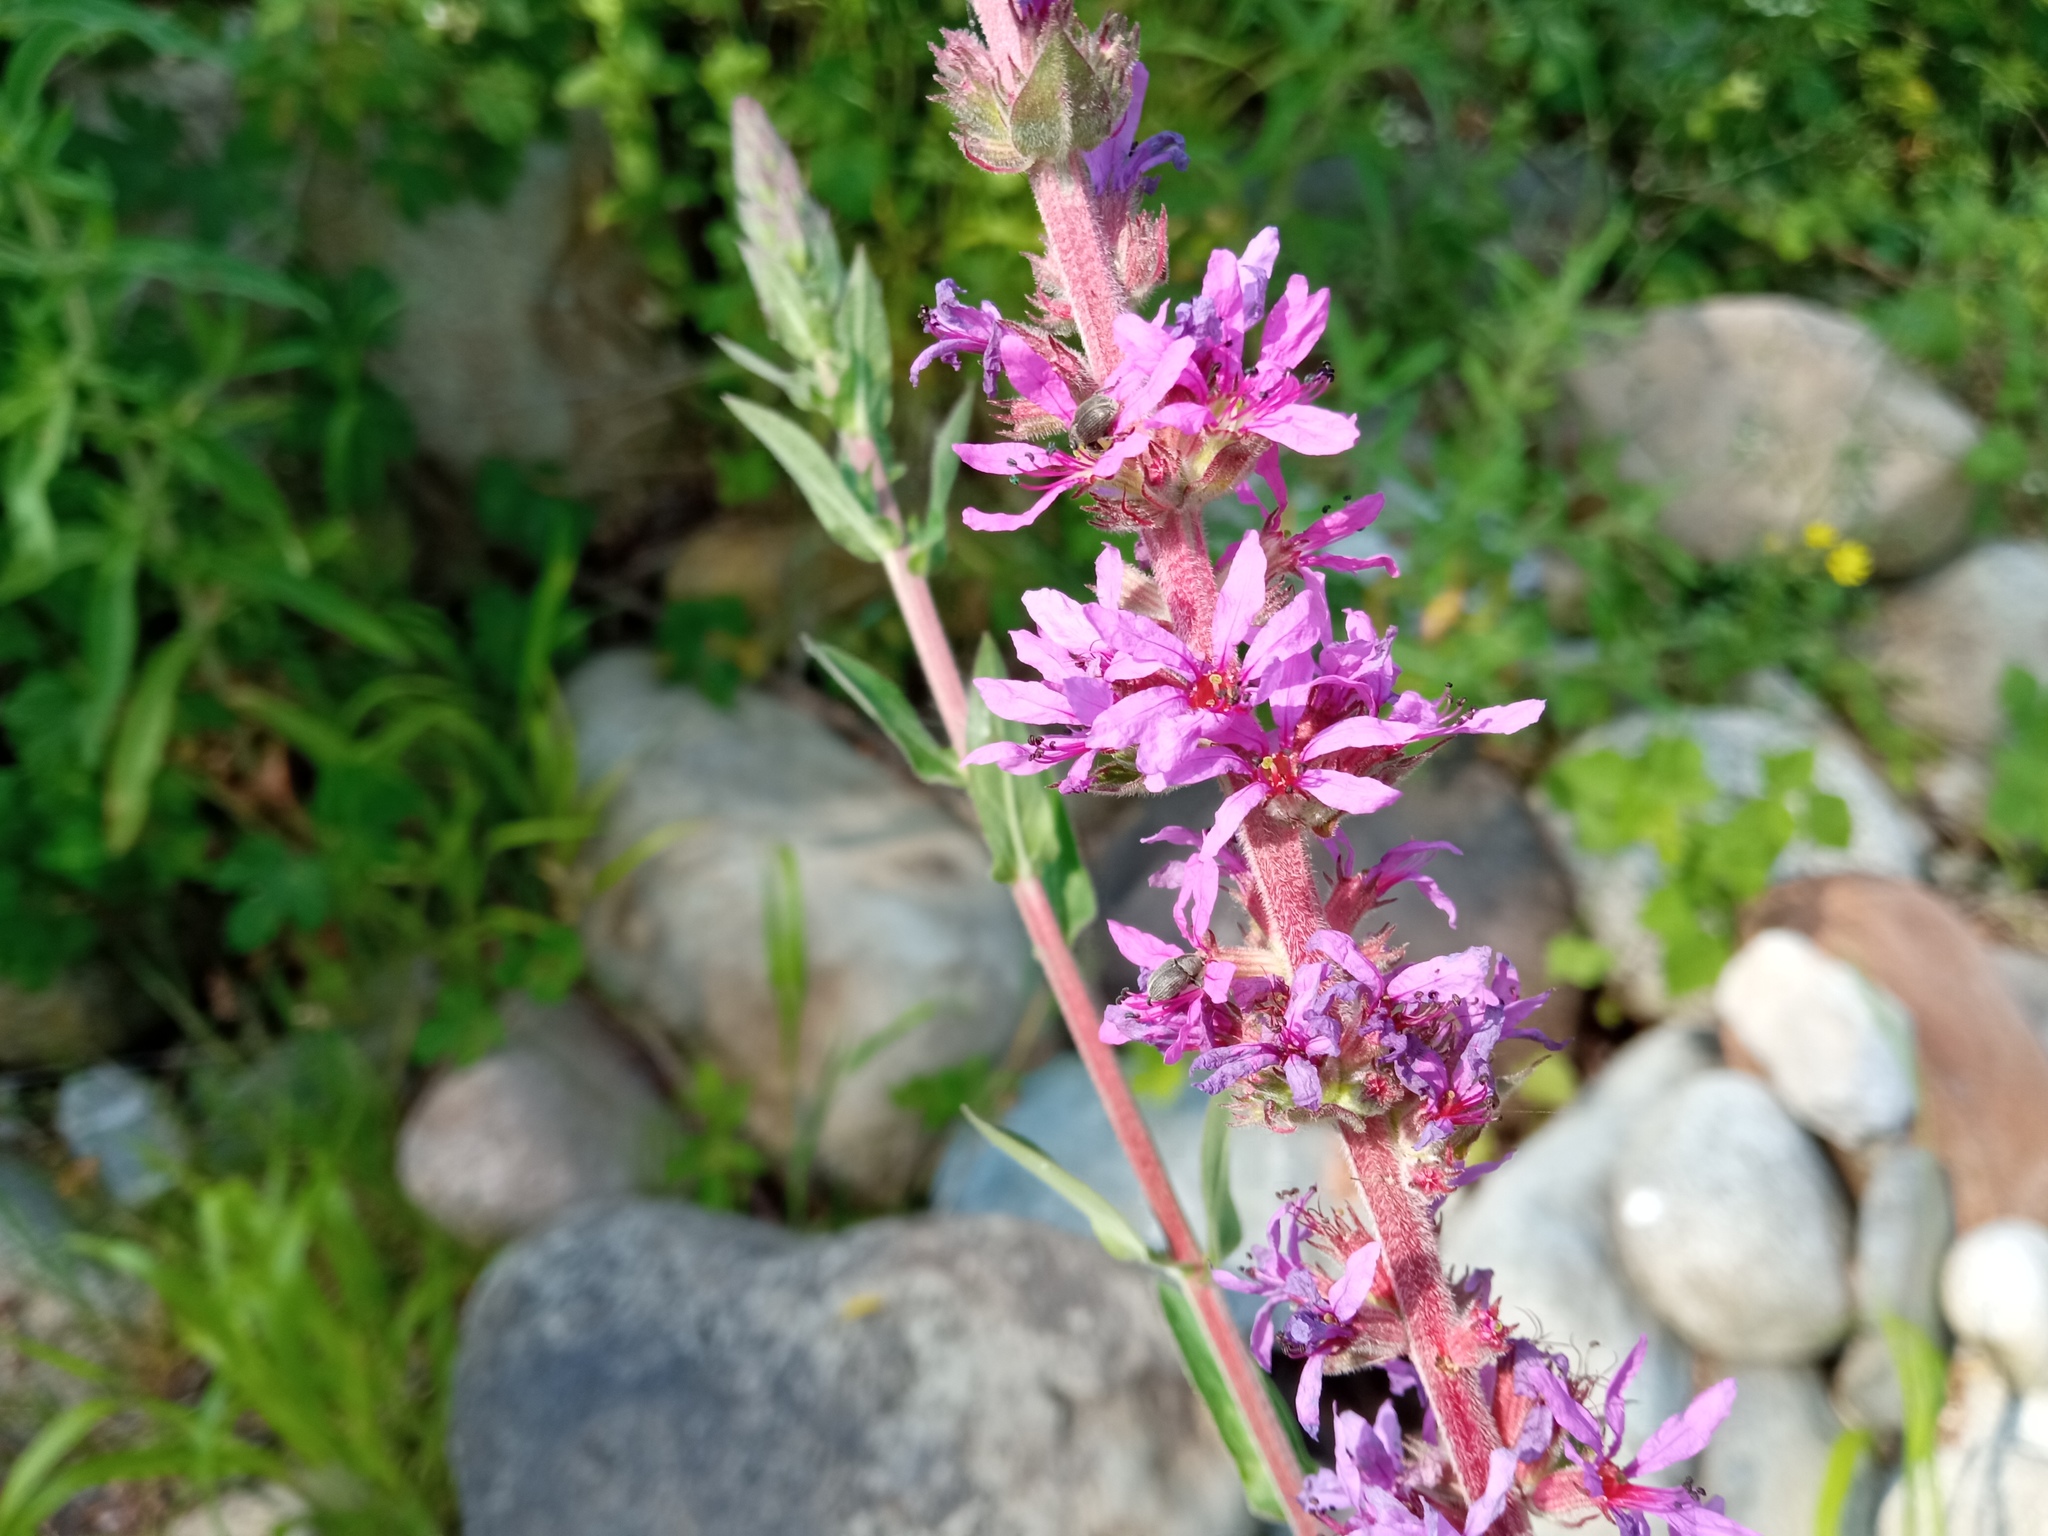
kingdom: Plantae
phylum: Tracheophyta
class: Magnoliopsida
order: Myrtales
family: Lythraceae
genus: Lythrum
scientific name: Lythrum salicaria
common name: Purple loosestrife
